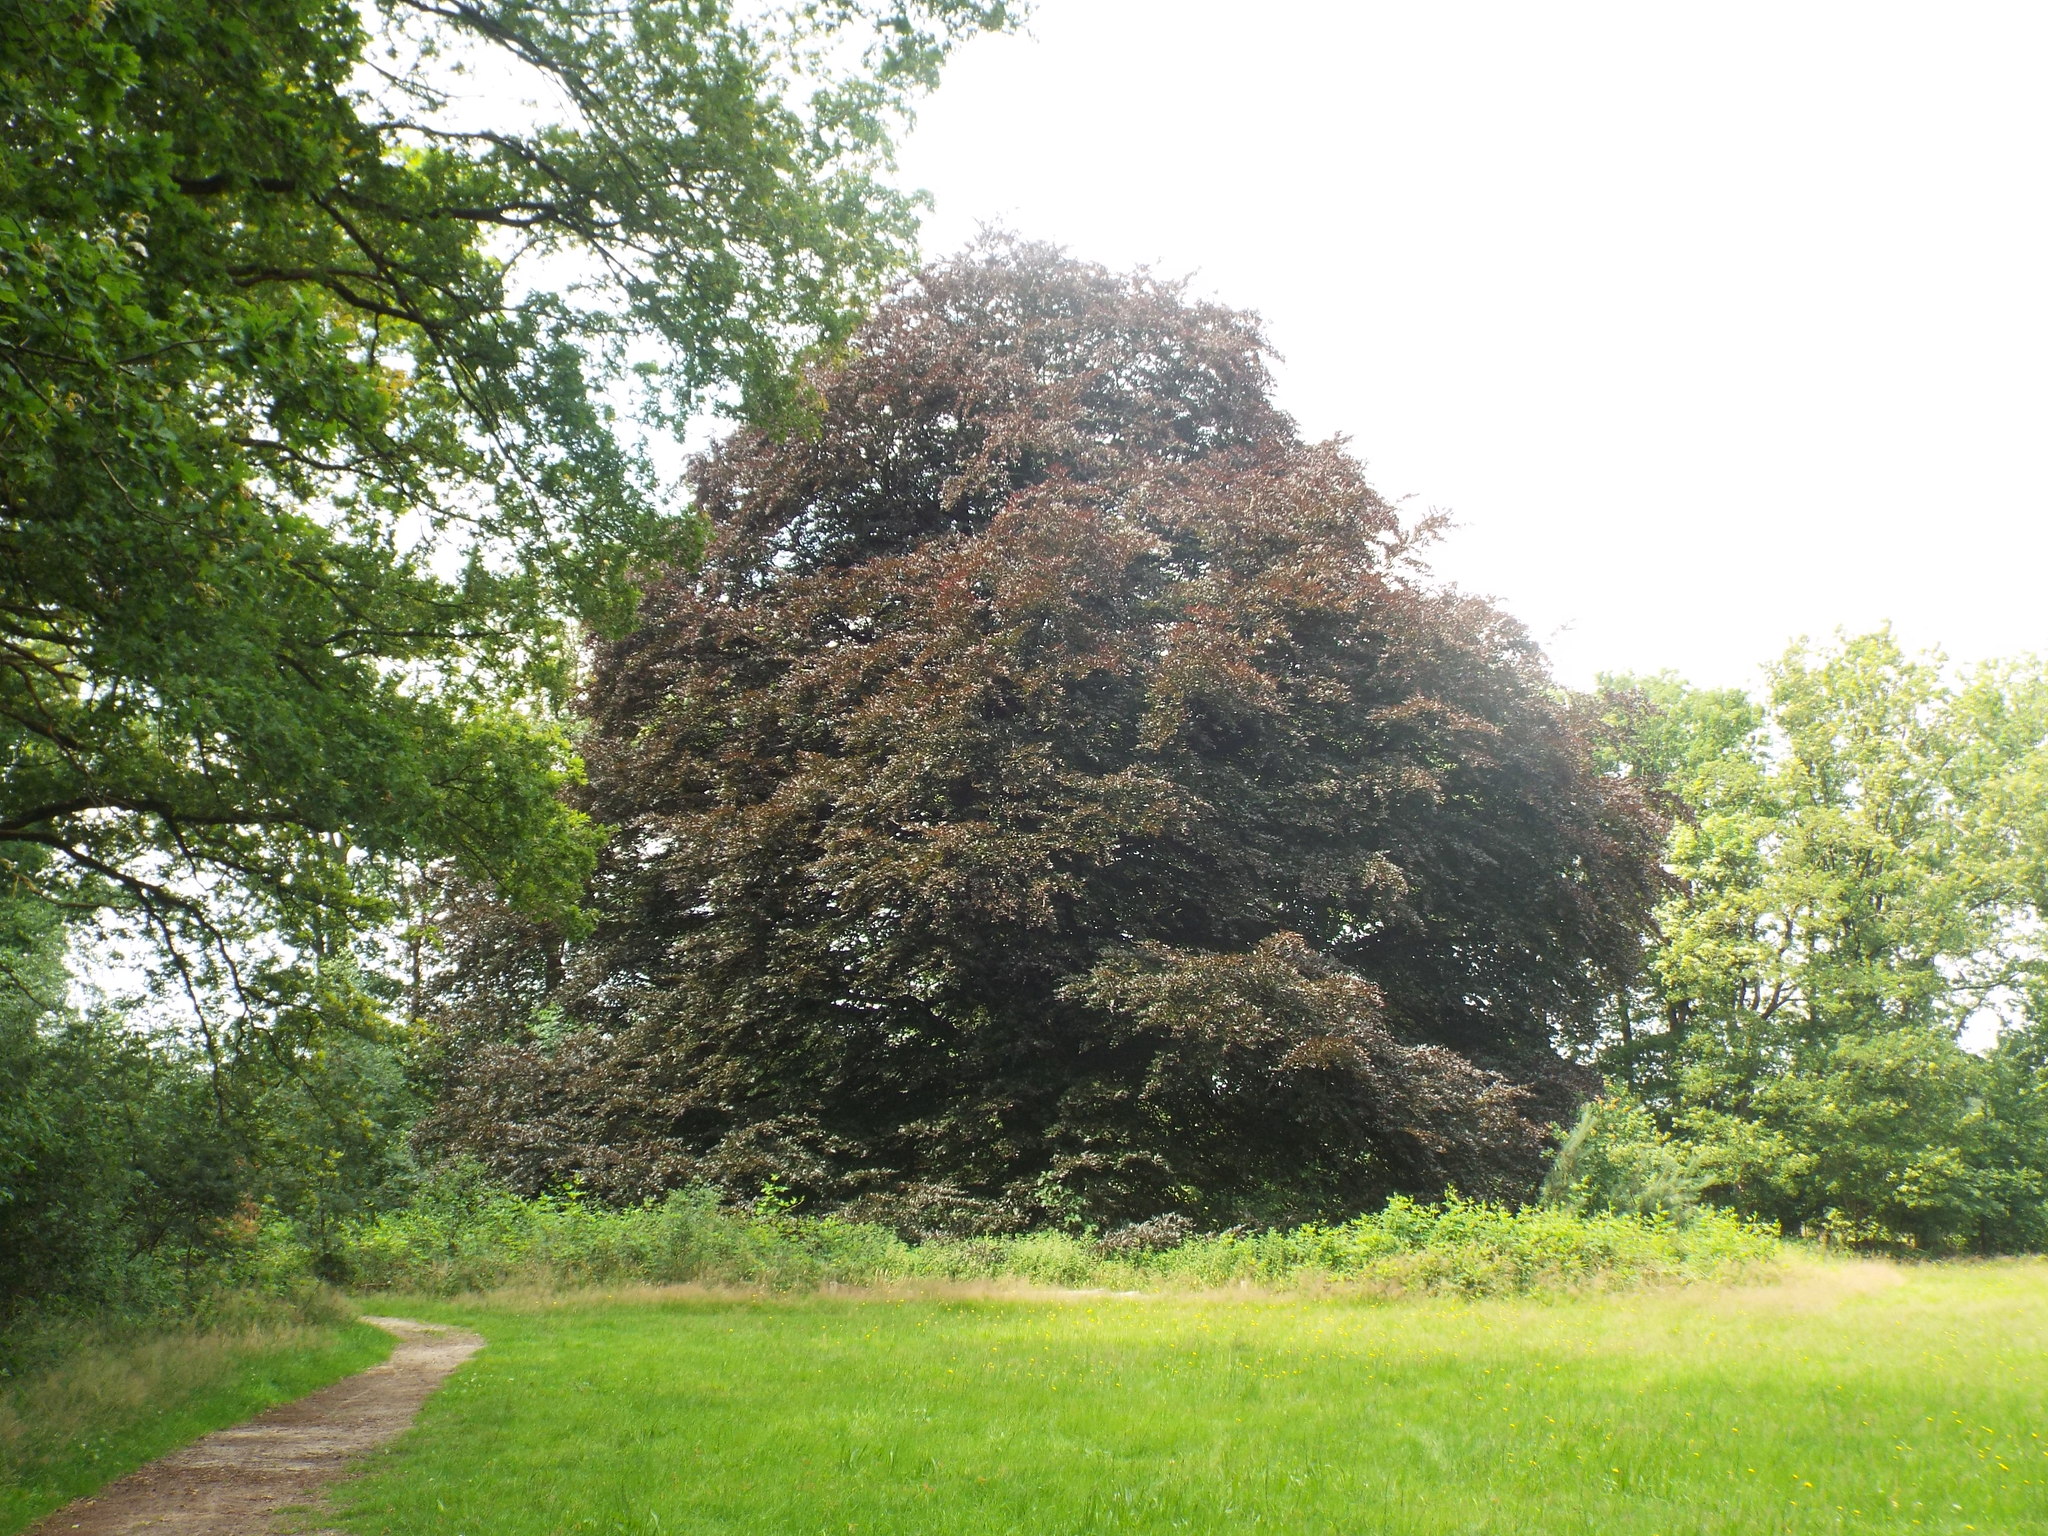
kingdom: Plantae
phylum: Tracheophyta
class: Magnoliopsida
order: Fagales
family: Fagaceae
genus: Fagus
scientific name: Fagus sylvatica
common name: Beech
